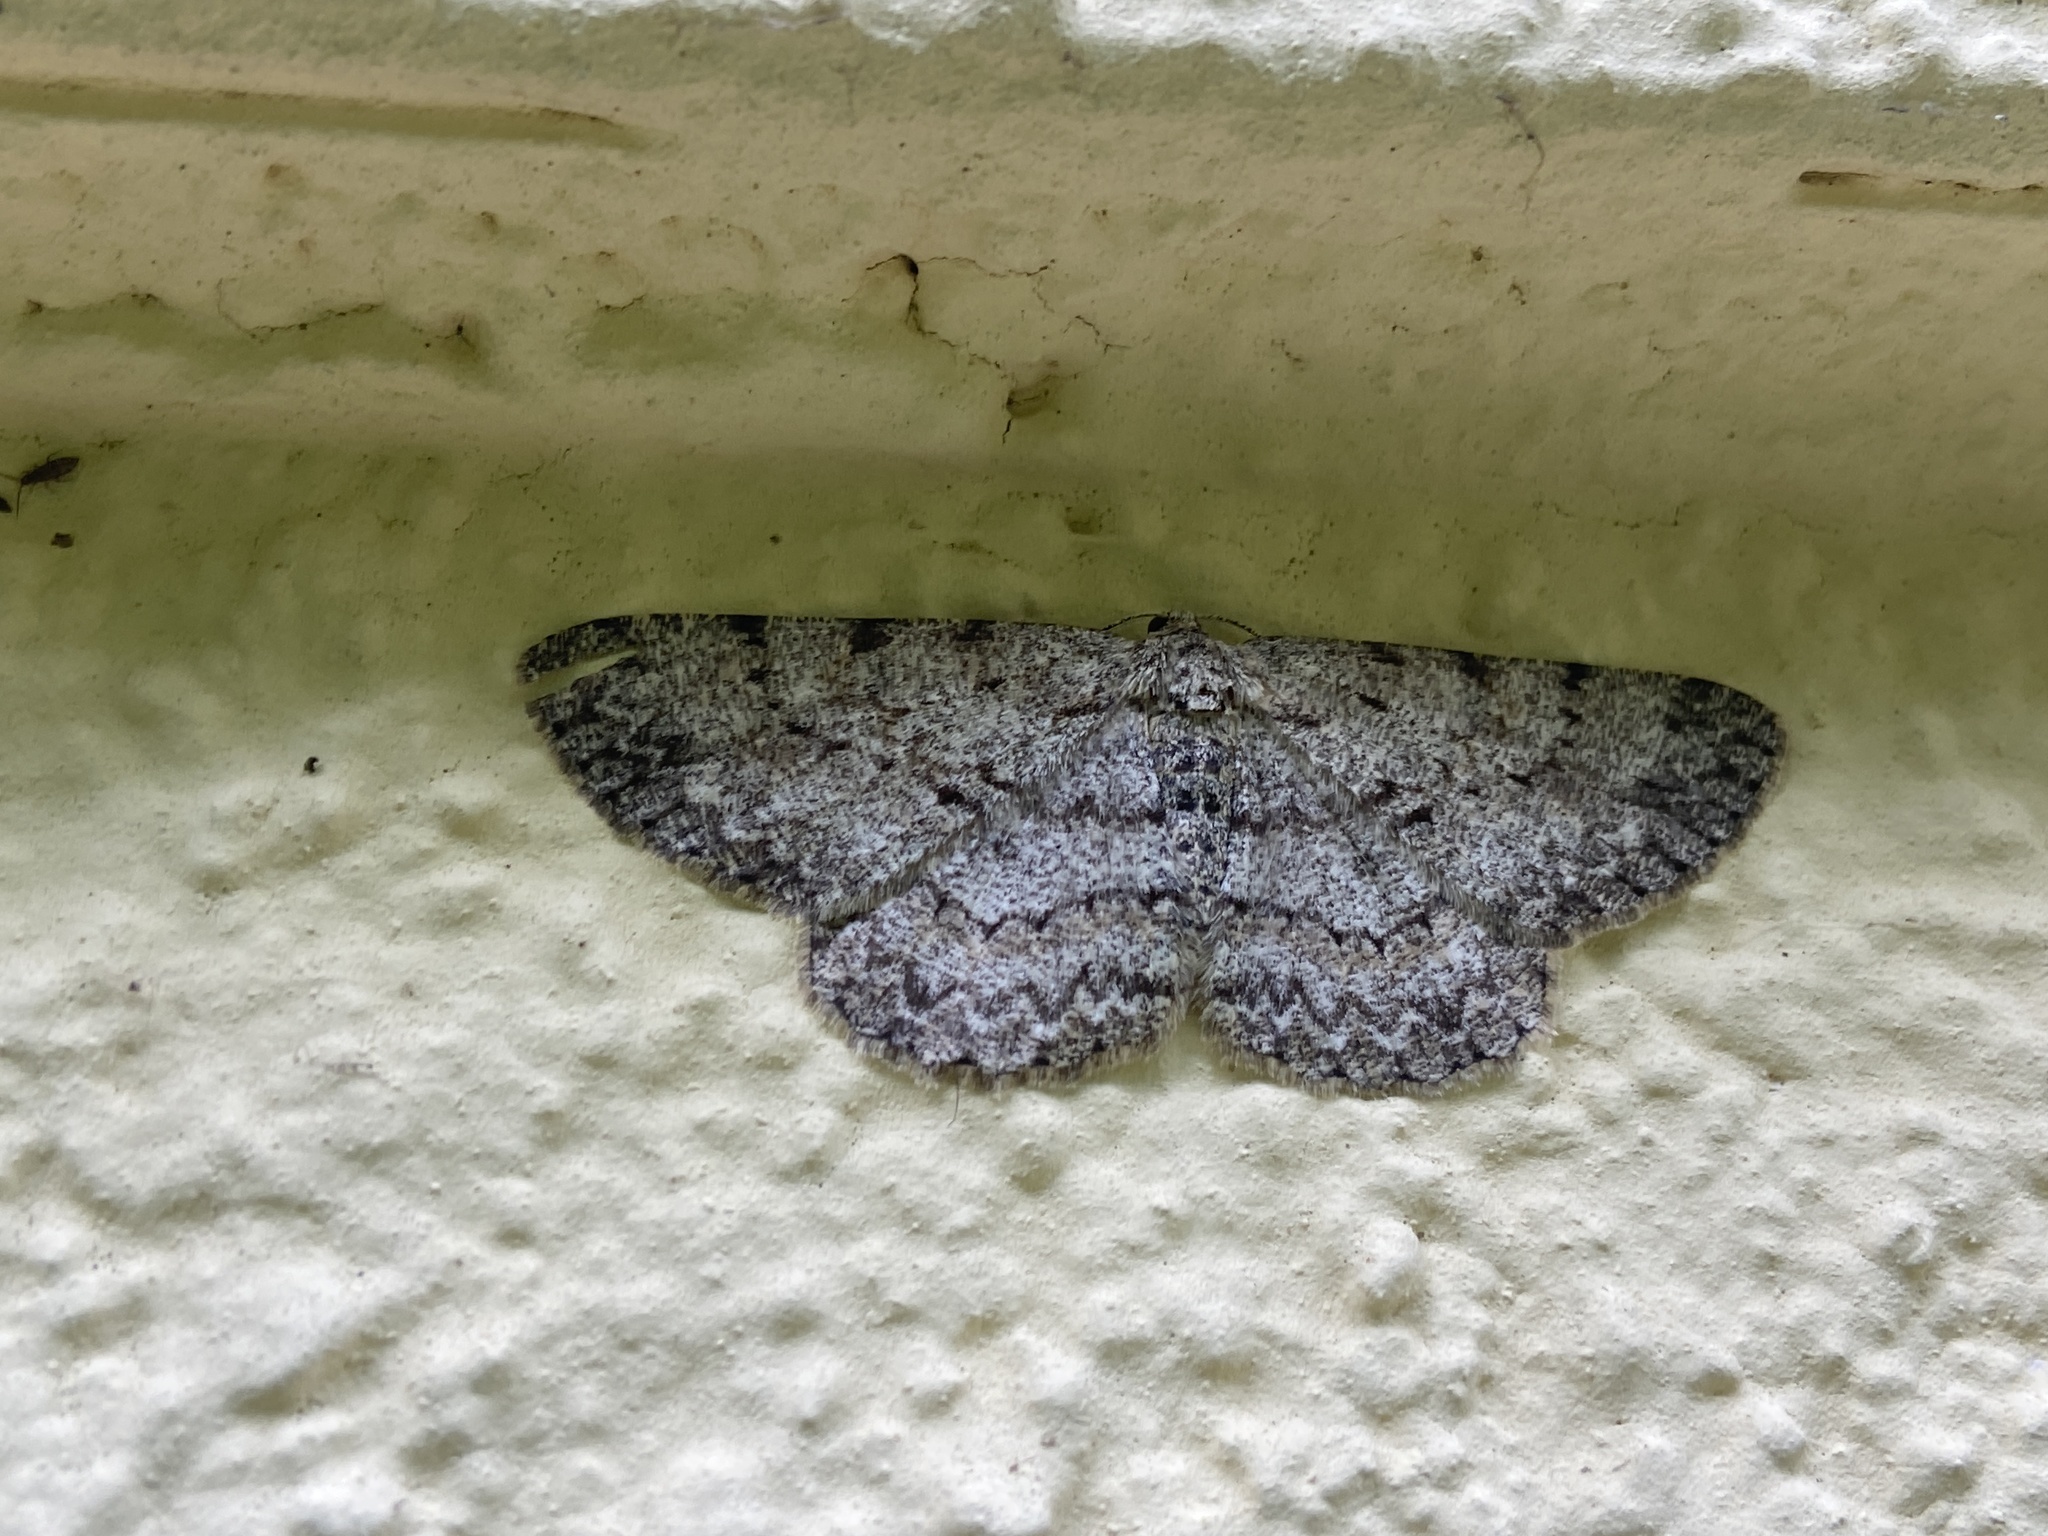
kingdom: Animalia
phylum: Arthropoda
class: Insecta
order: Lepidoptera
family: Geometridae
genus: Hypomecis
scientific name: Hypomecis punctinalis
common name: Pale oak beauty
